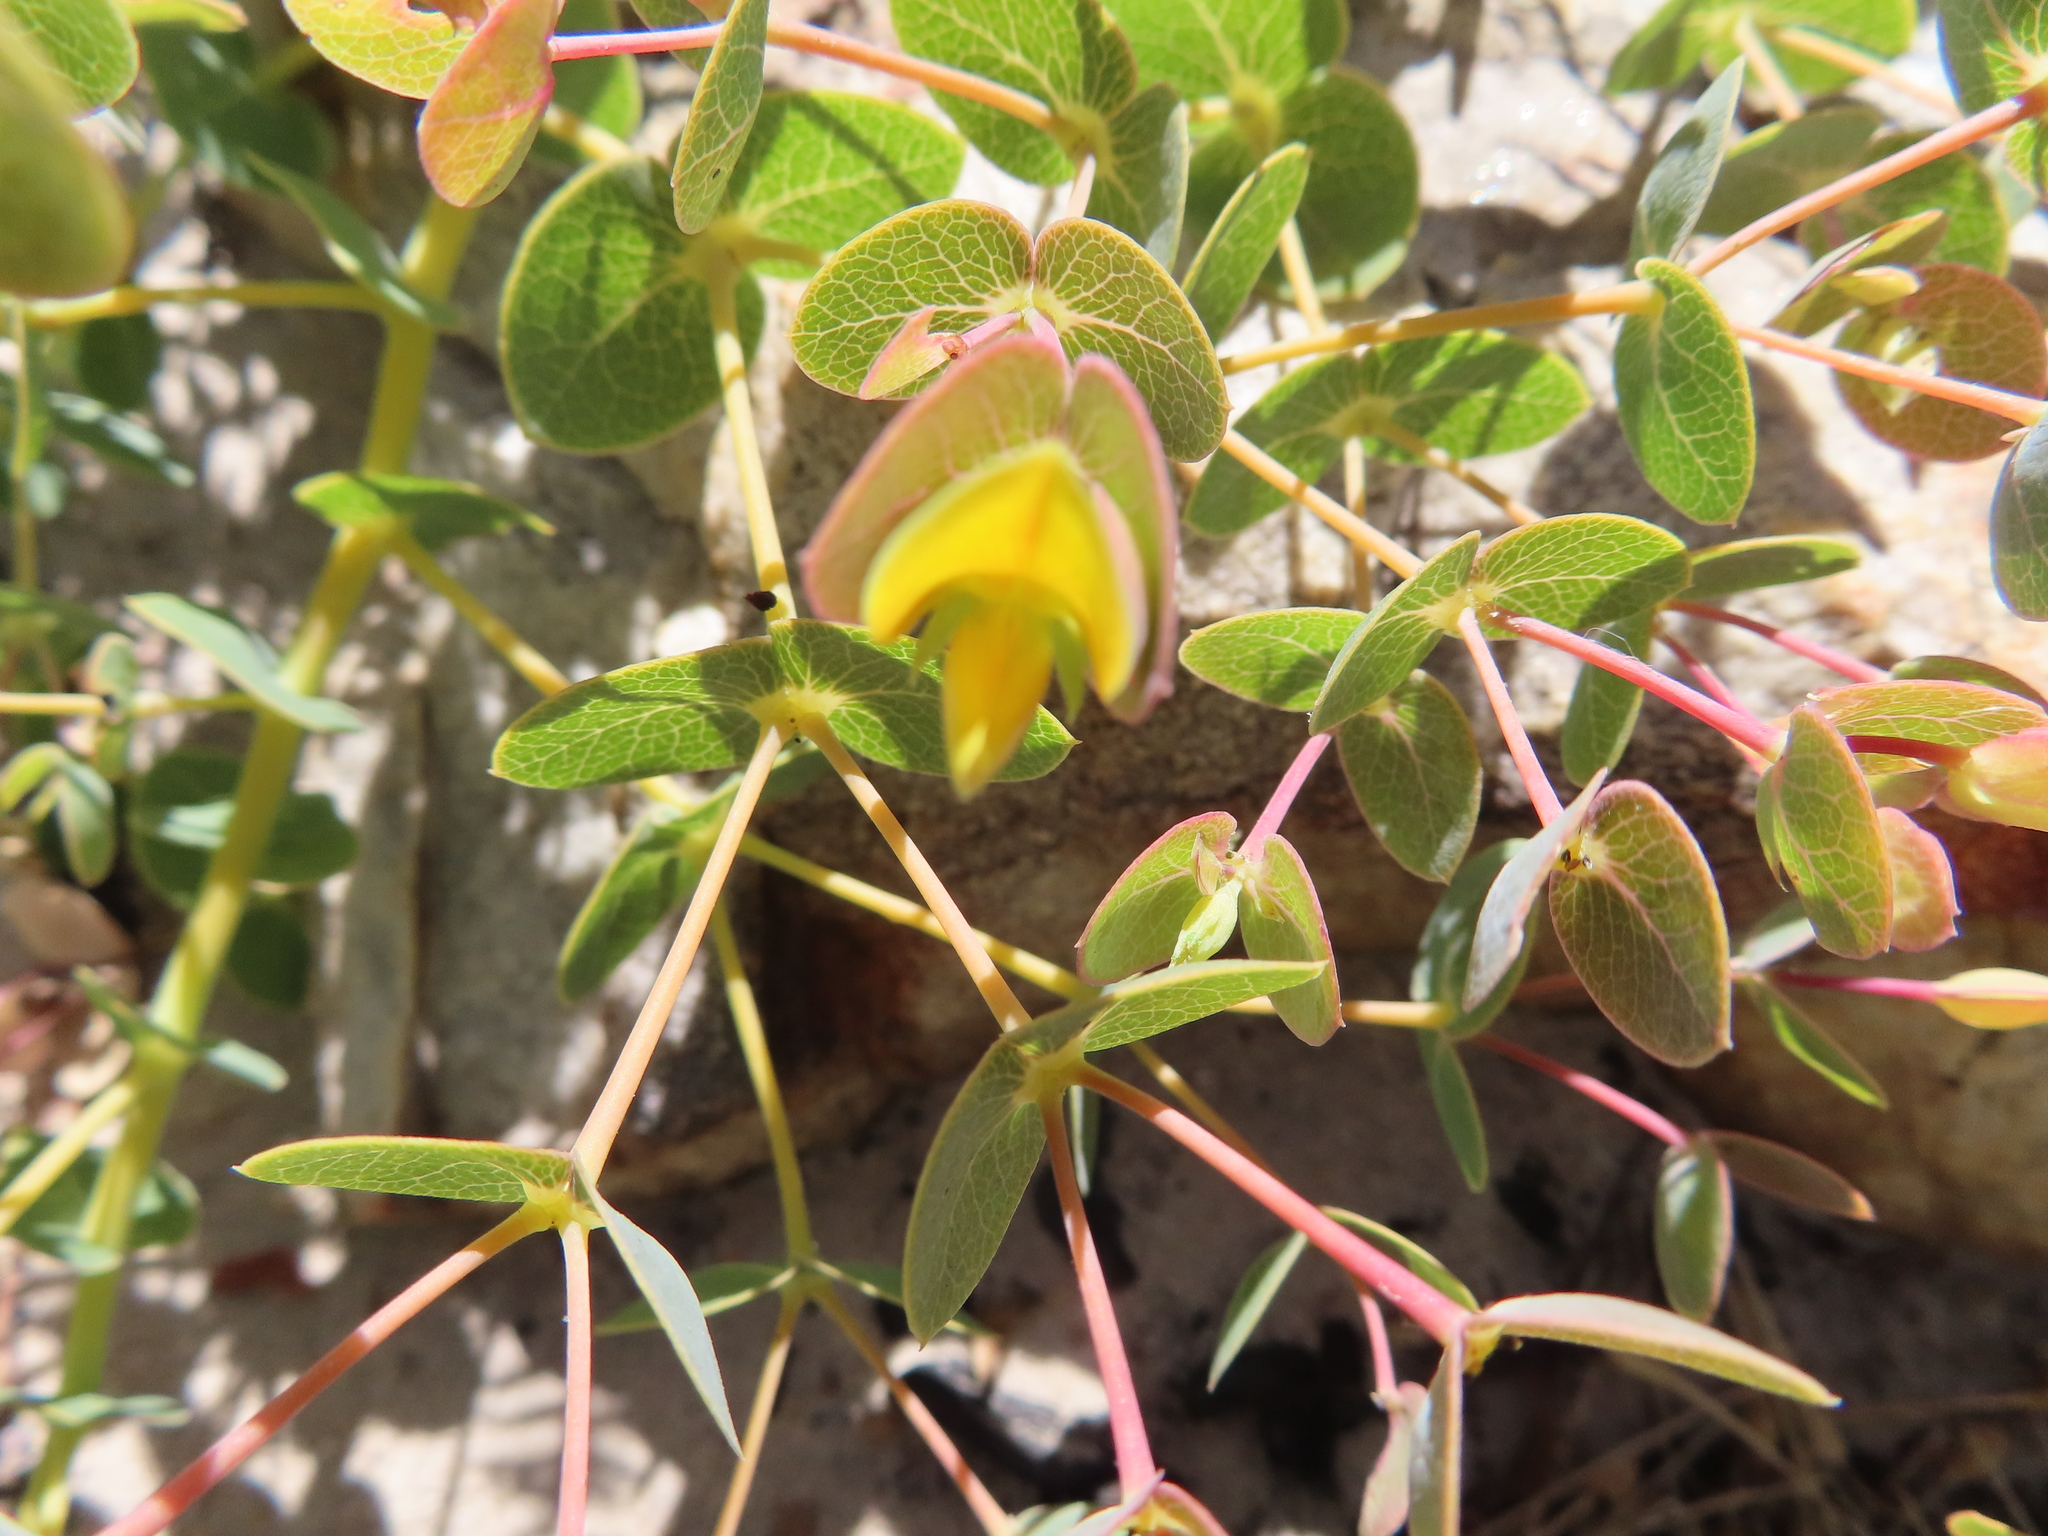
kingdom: Plantae
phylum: Tracheophyta
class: Magnoliopsida
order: Fabales
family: Fabaceae
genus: Rafnia
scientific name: Rafnia acuminata
